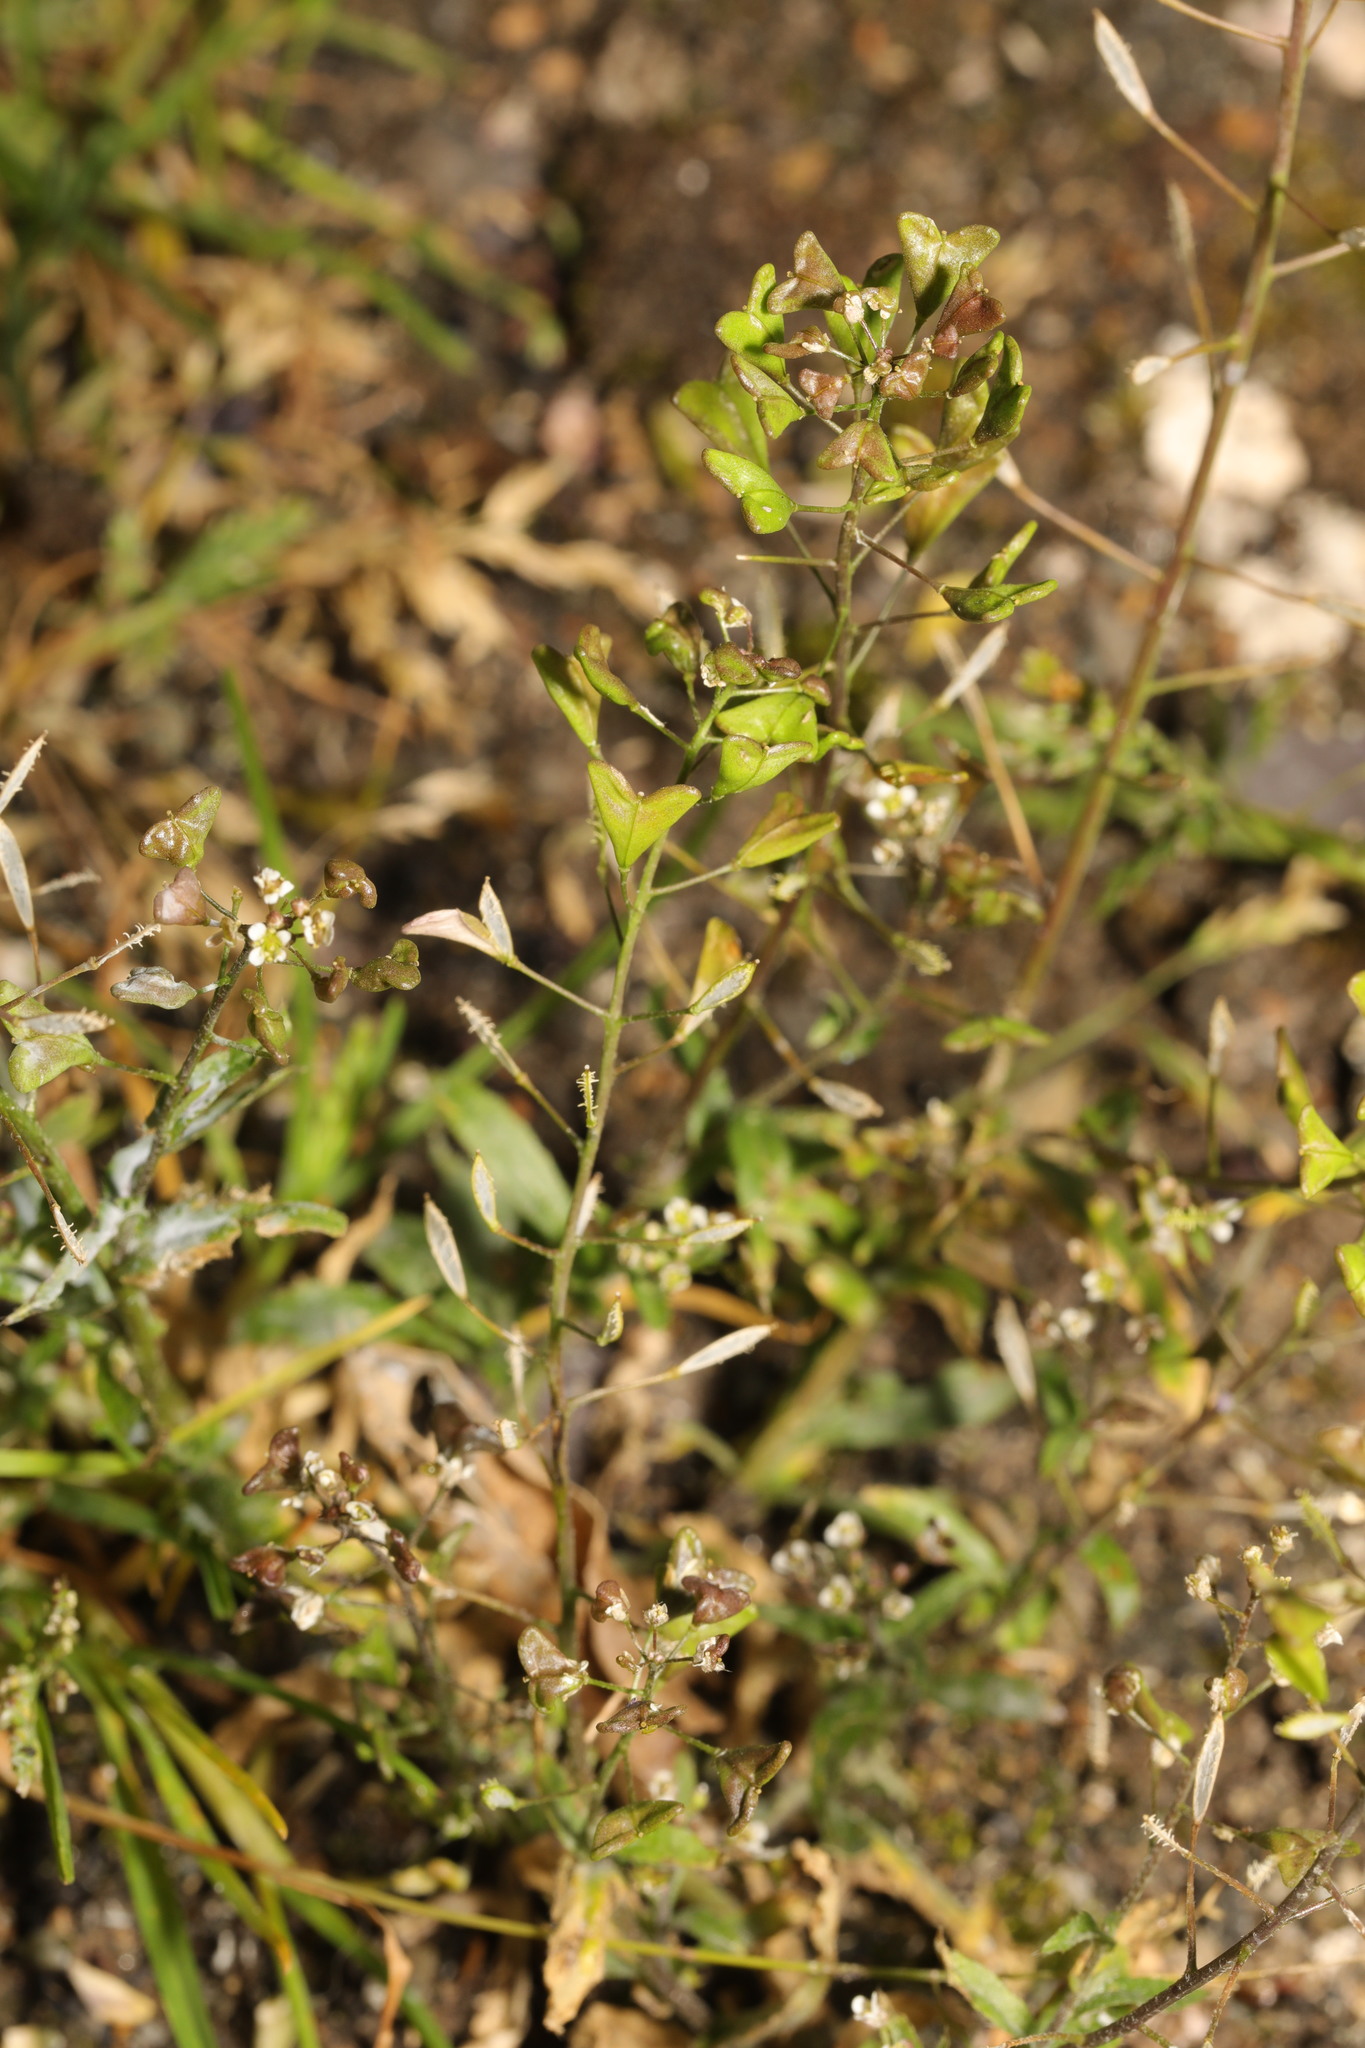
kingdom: Plantae
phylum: Tracheophyta
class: Magnoliopsida
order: Brassicales
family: Brassicaceae
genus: Capsella
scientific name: Capsella bursa-pastoris
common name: Shepherd's purse
